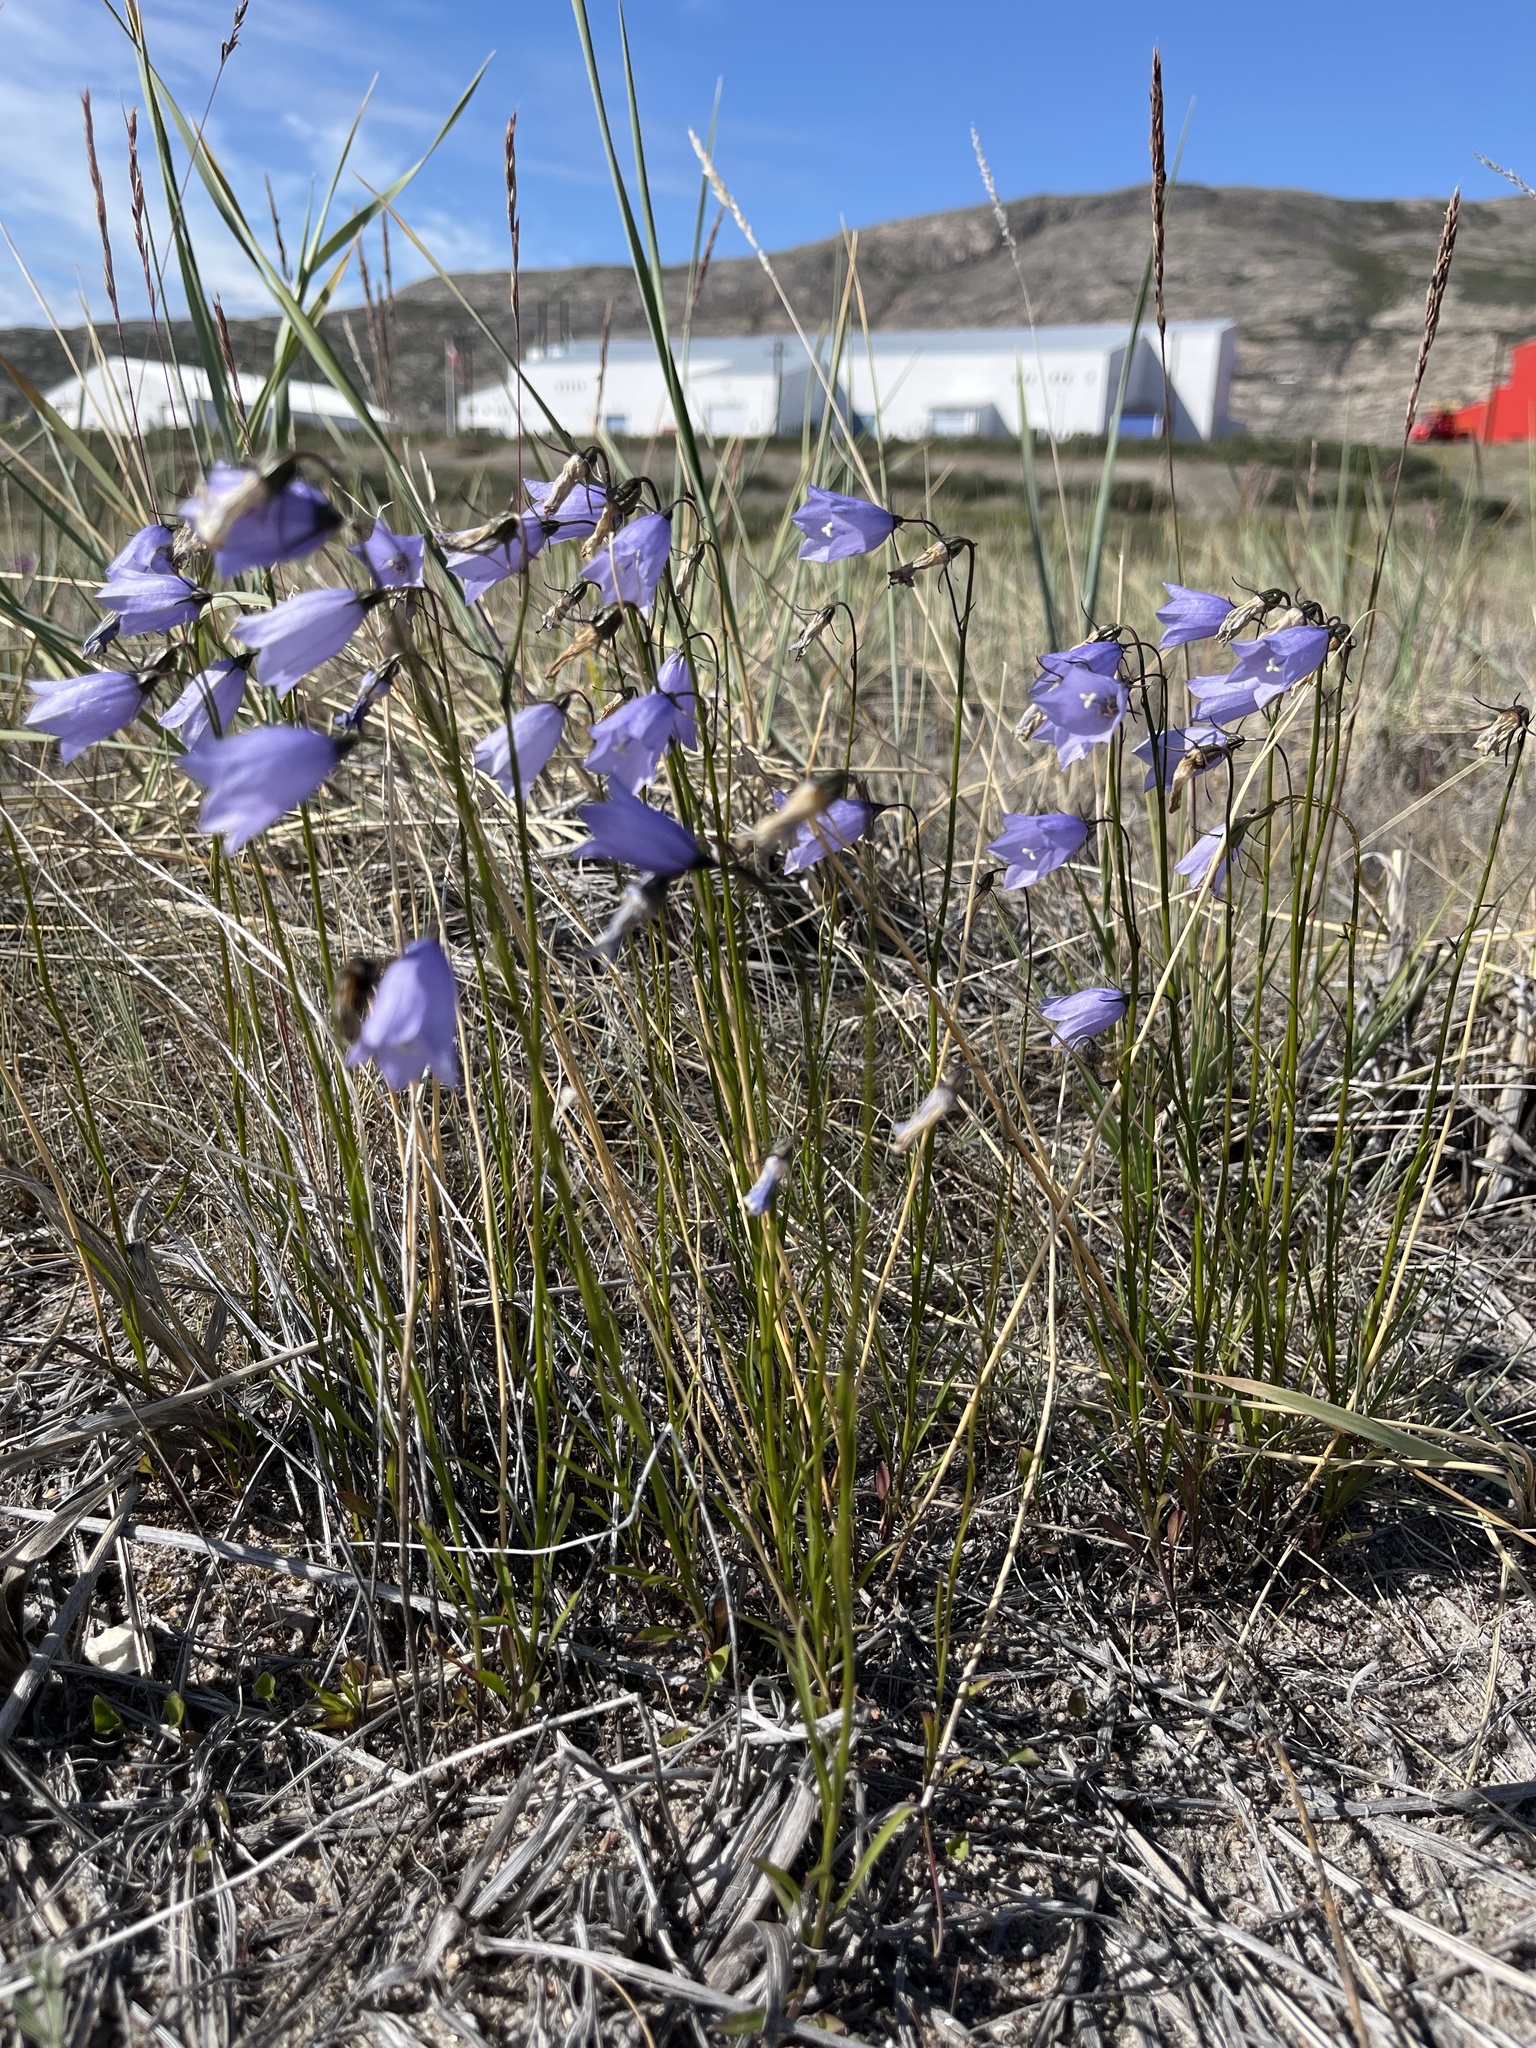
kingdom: Plantae
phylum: Tracheophyta
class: Magnoliopsida
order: Asterales
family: Campanulaceae
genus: Campanula
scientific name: Campanula giesekiana
